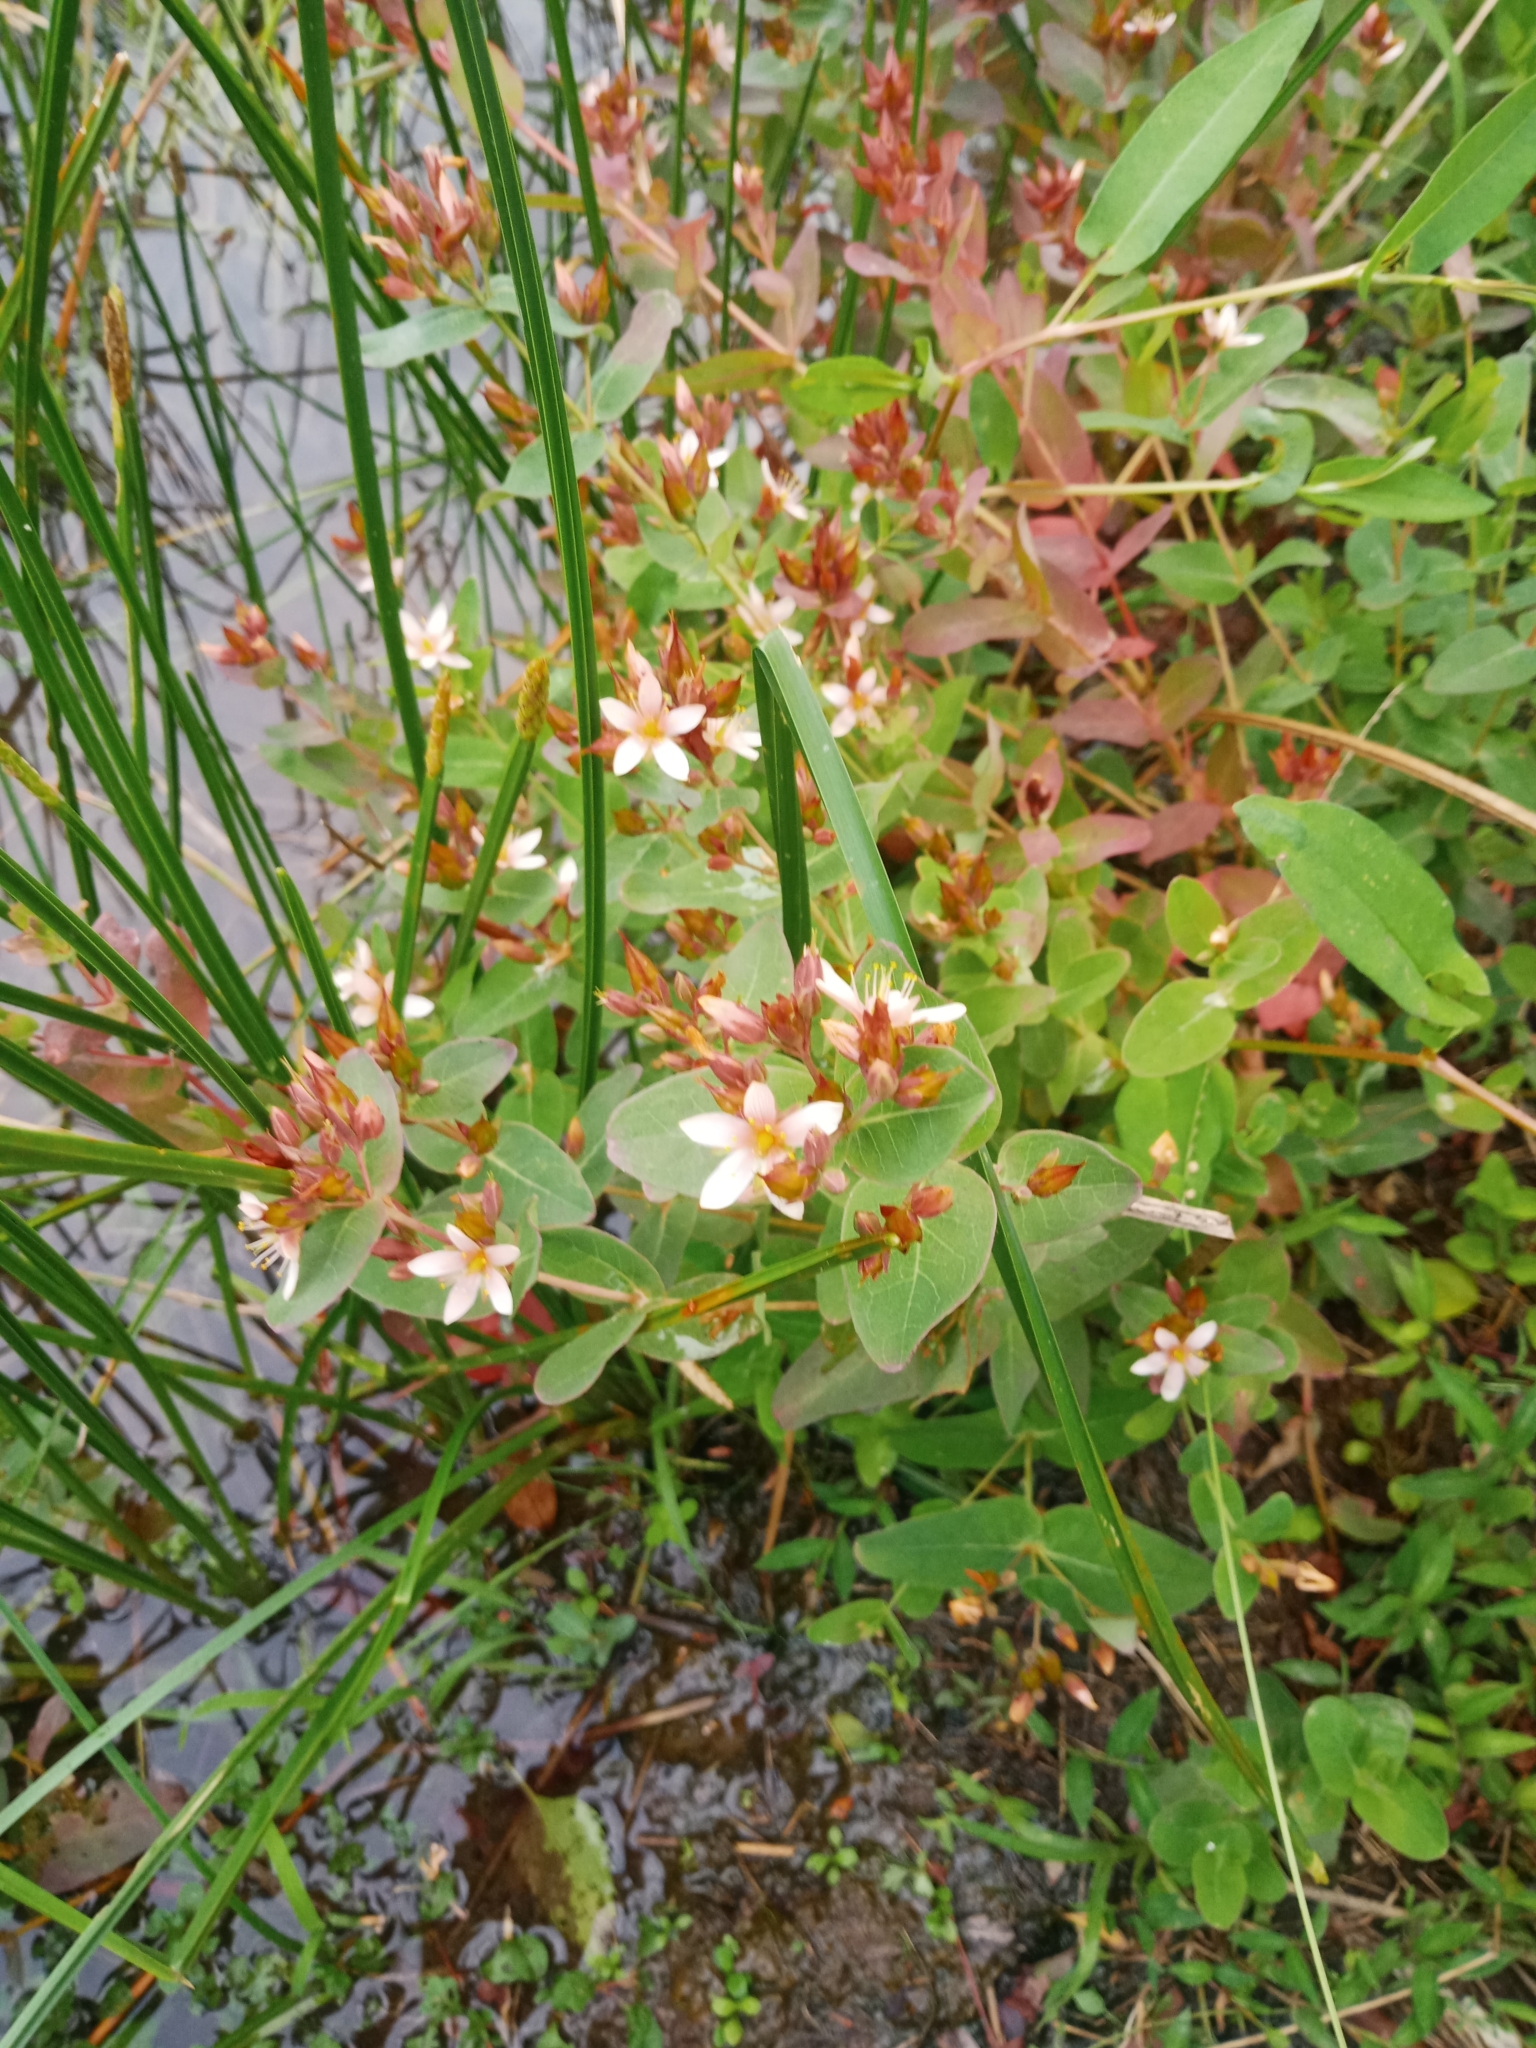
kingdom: Plantae
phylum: Tracheophyta
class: Magnoliopsida
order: Malpighiales
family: Hypericaceae
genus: Triadenum
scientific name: Triadenum virginicum
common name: Marsh st. john's-wort
